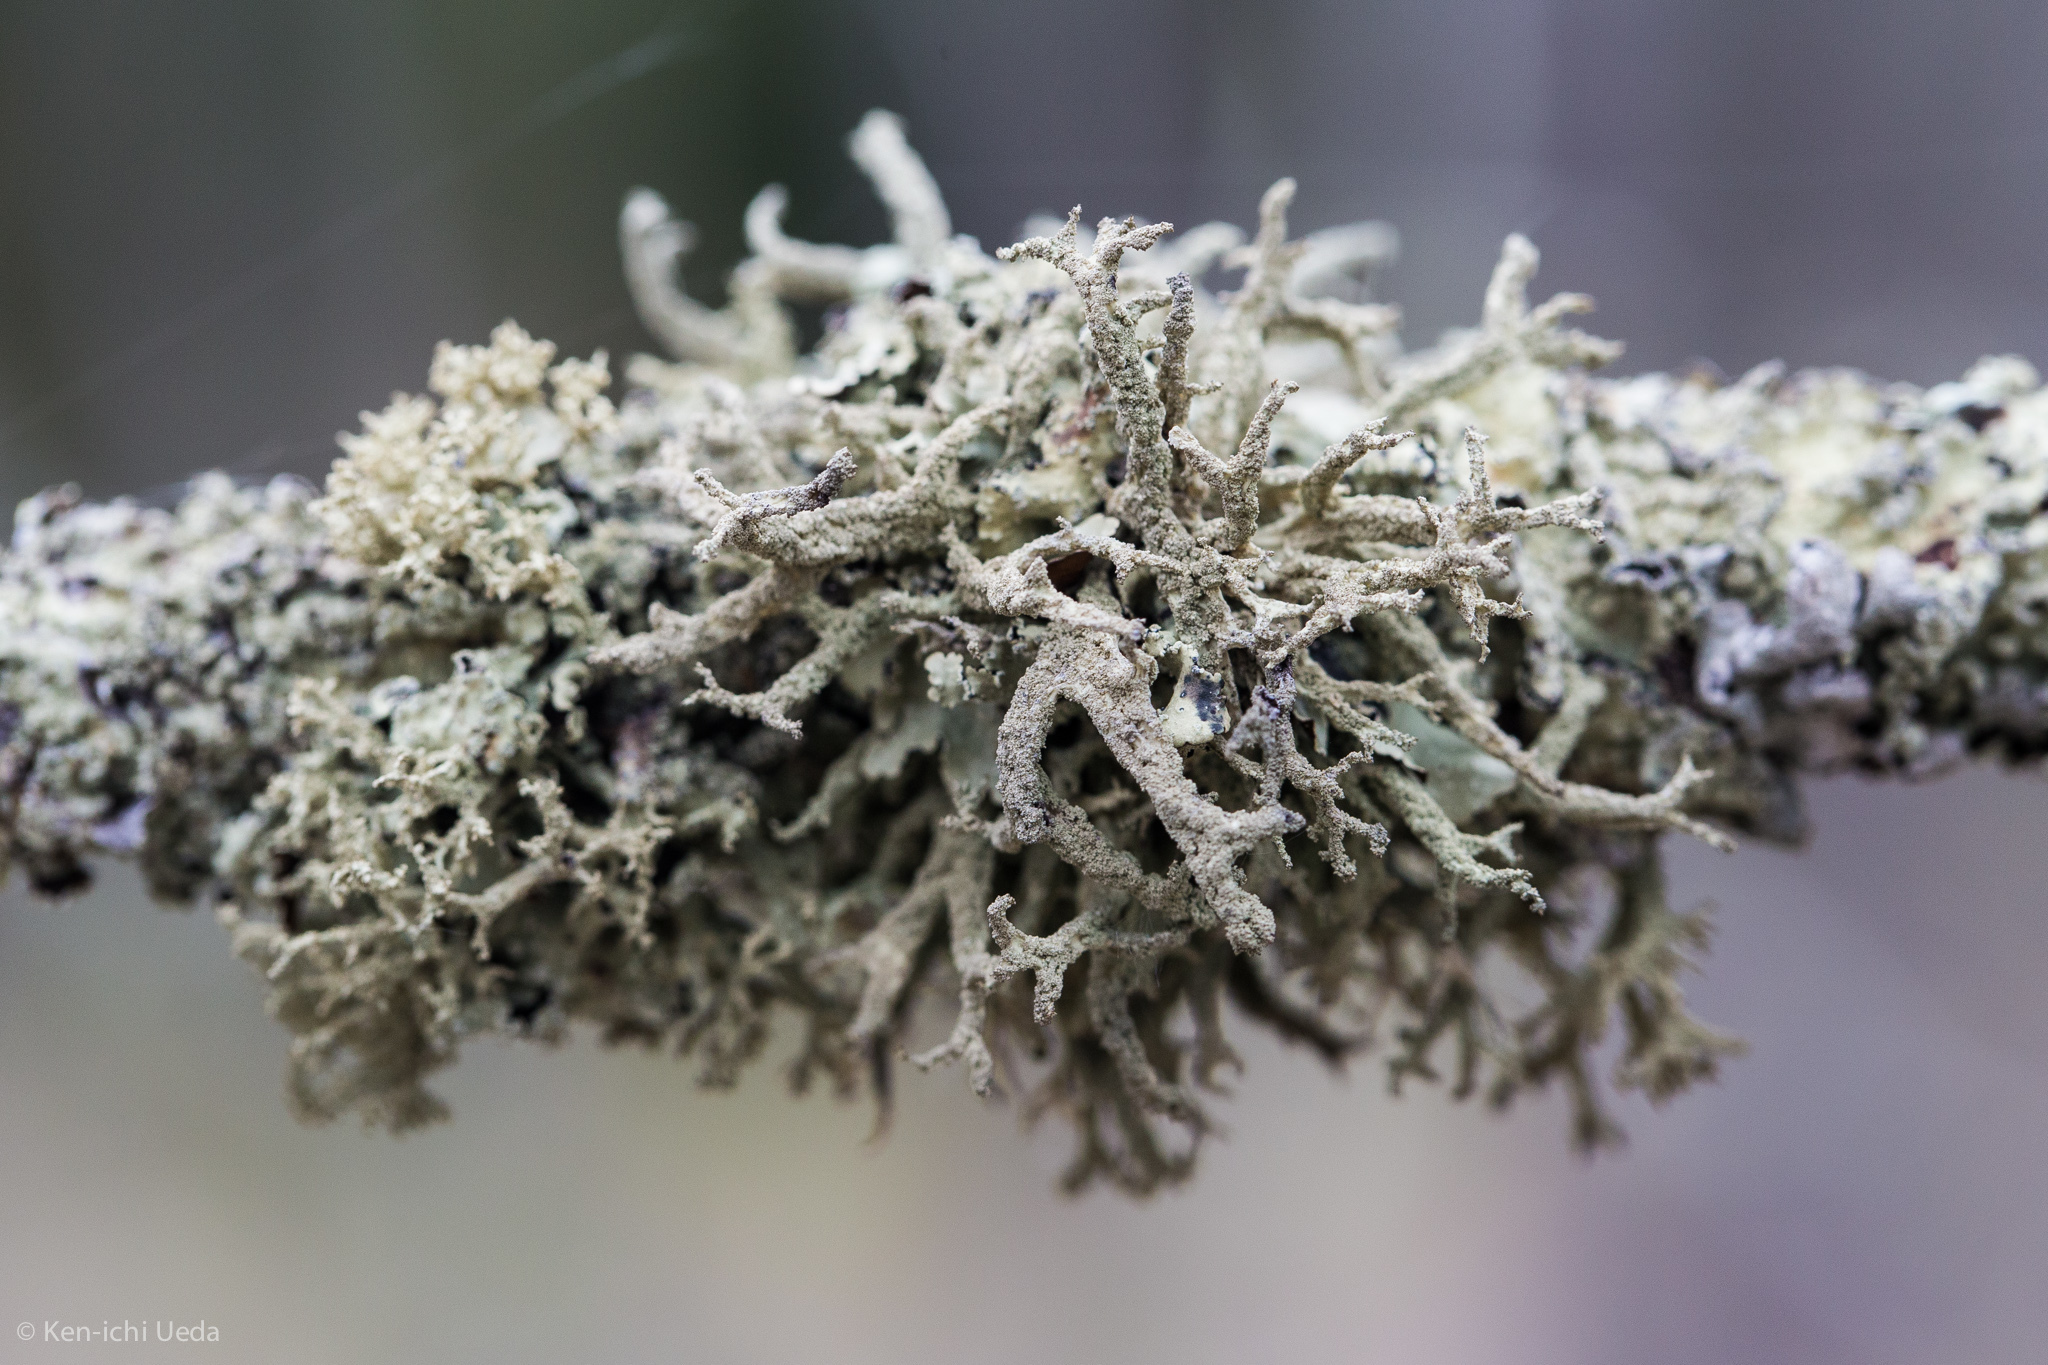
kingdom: Fungi
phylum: Ascomycota
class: Lecanoromycetes
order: Lecanorales
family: Parmeliaceae
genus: Evernia
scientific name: Evernia mesomorpha
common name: Boreal oak moss lichen
